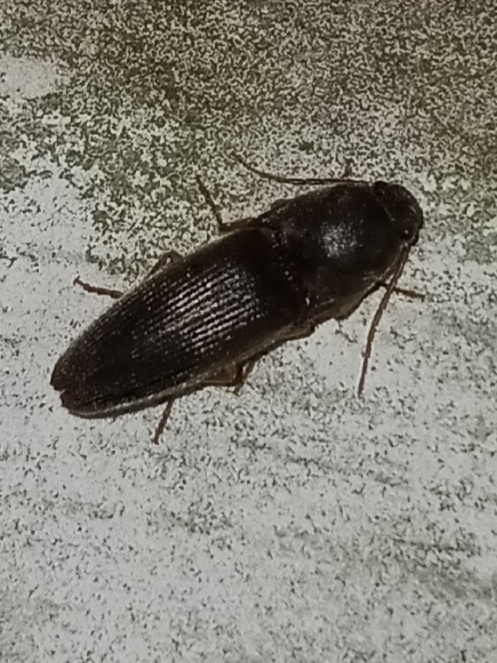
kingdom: Animalia
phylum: Arthropoda
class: Insecta
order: Coleoptera
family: Elateridae
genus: Conoderus
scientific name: Conoderus exsul
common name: Click beetle
